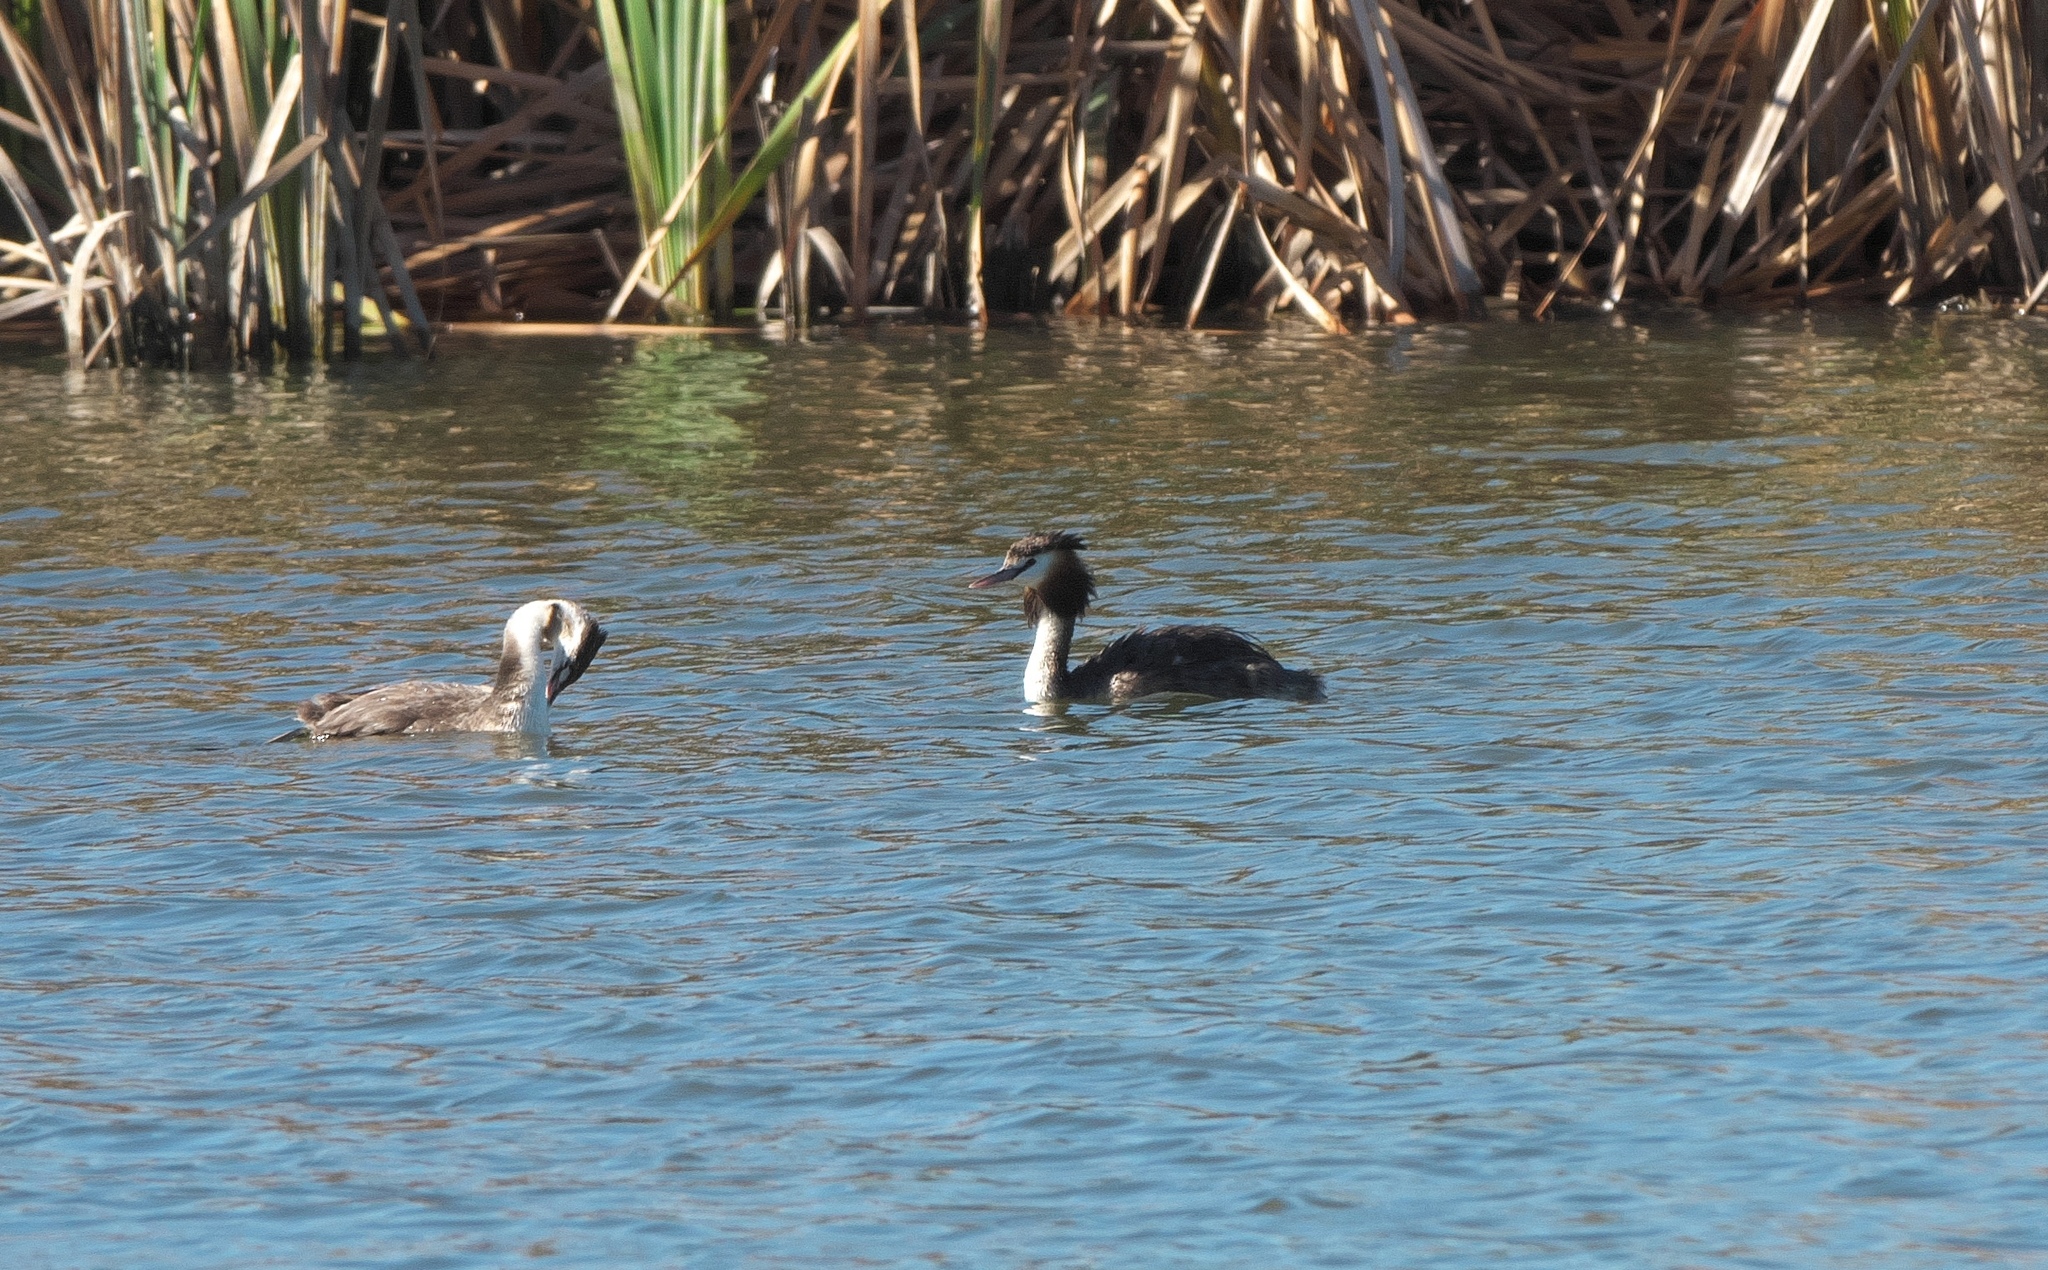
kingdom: Animalia
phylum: Chordata
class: Aves
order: Podicipediformes
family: Podicipedidae
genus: Podiceps
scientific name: Podiceps cristatus
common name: Great crested grebe
